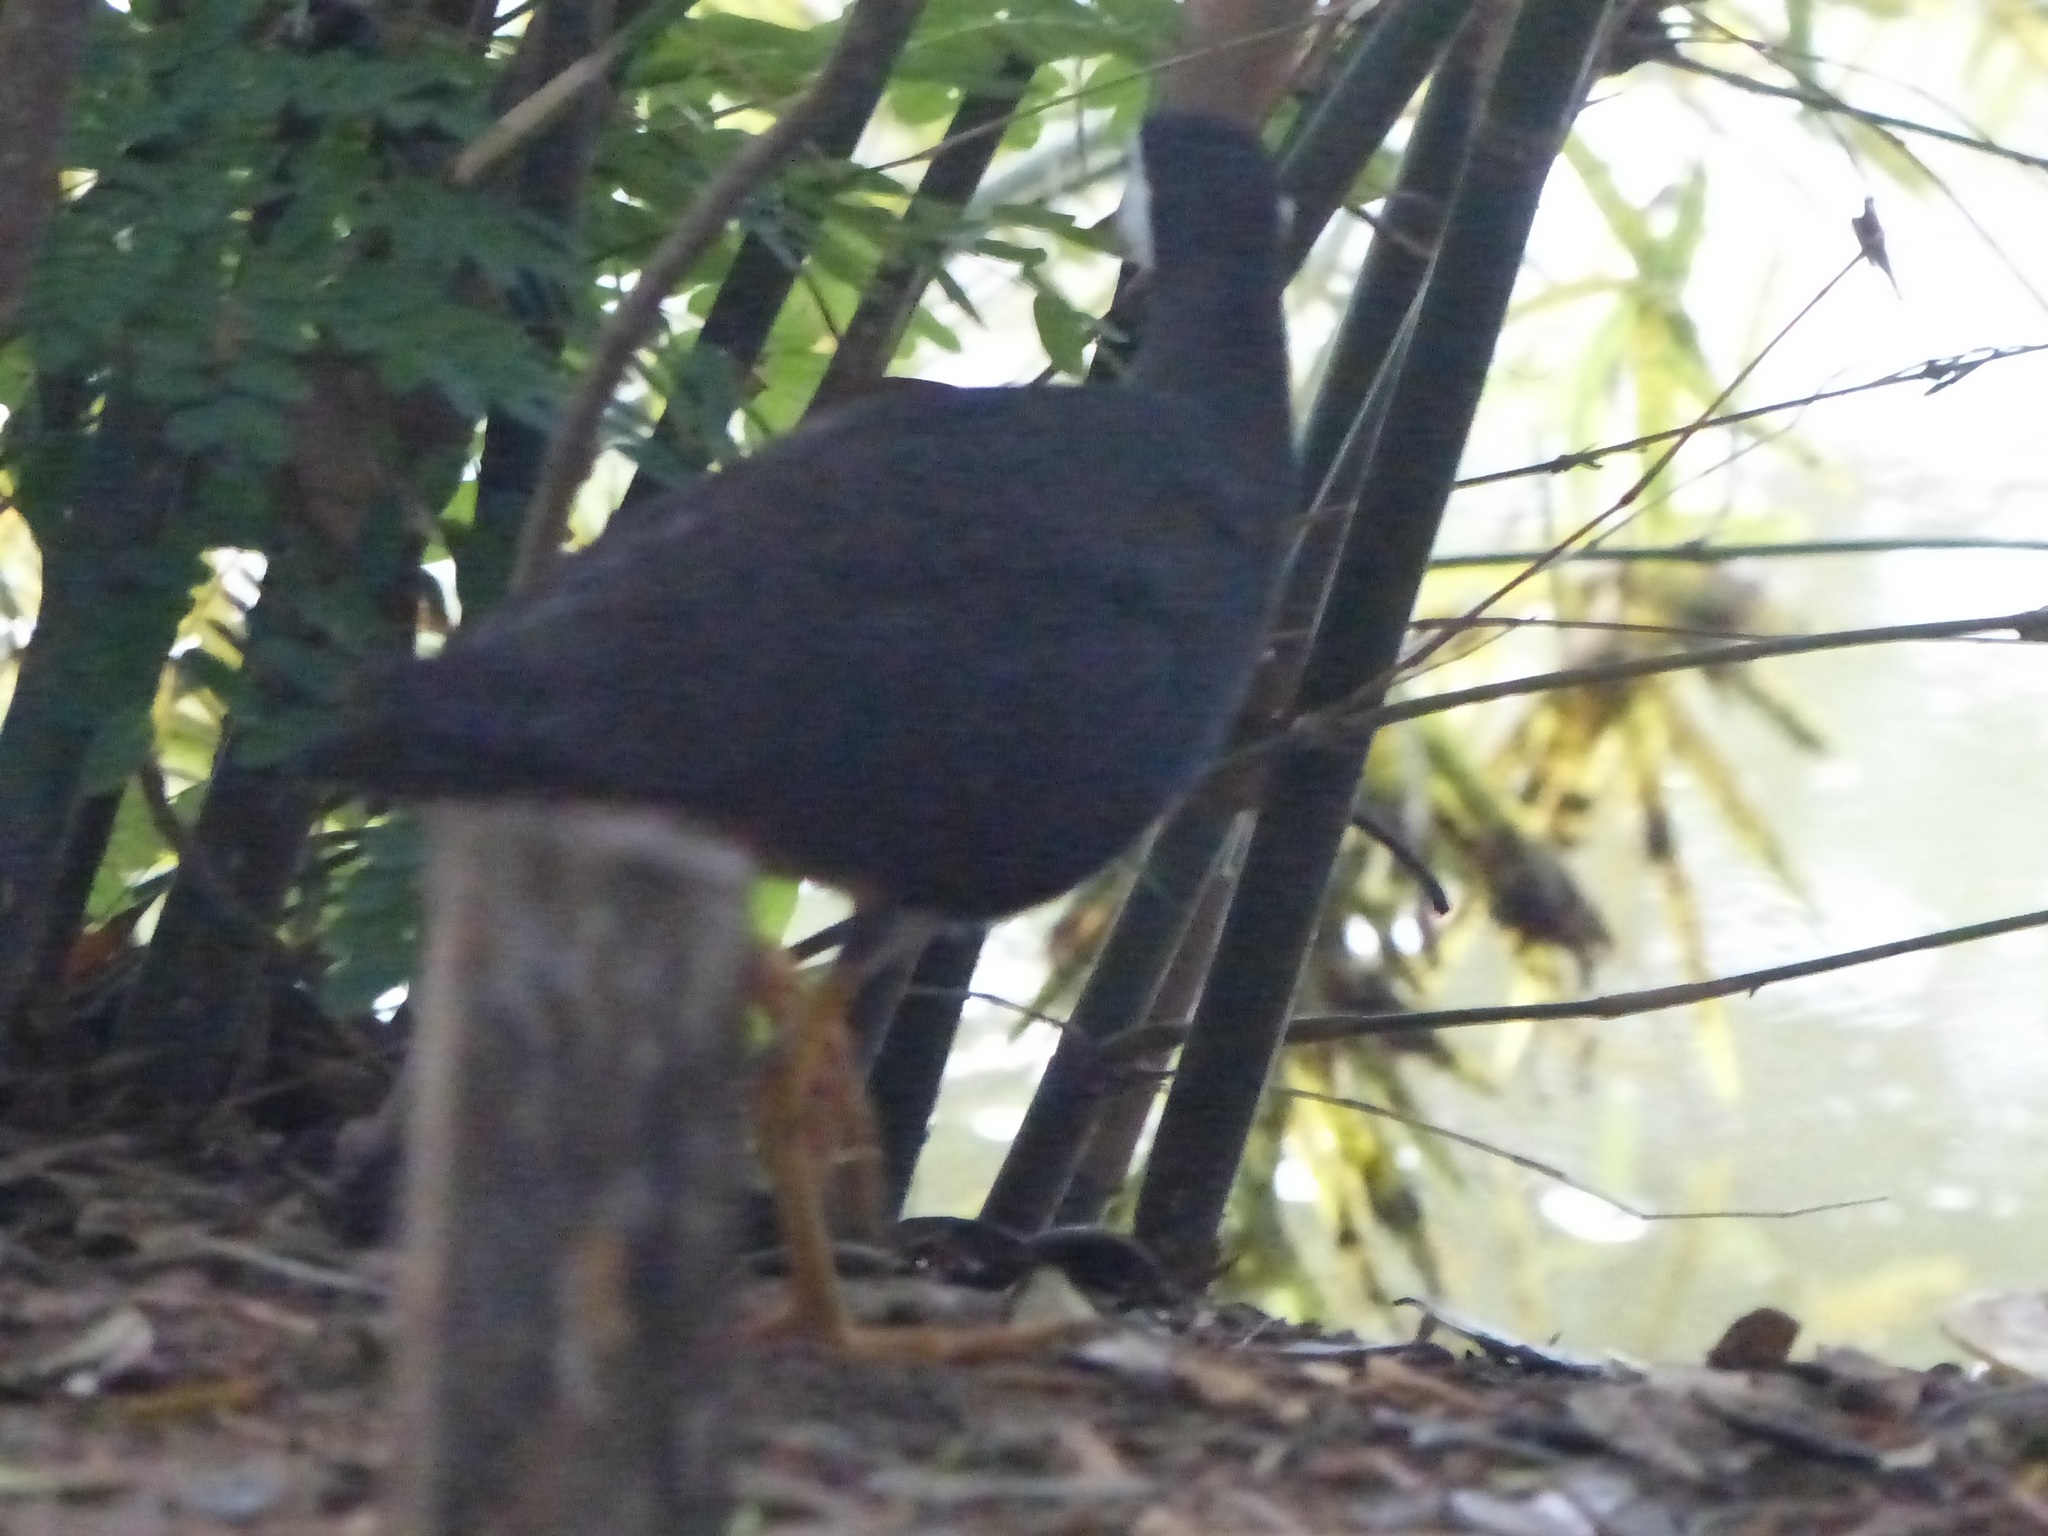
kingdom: Animalia
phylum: Chordata
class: Aves
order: Gruiformes
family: Rallidae
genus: Amaurornis
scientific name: Amaurornis phoenicurus
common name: White-breasted waterhen
